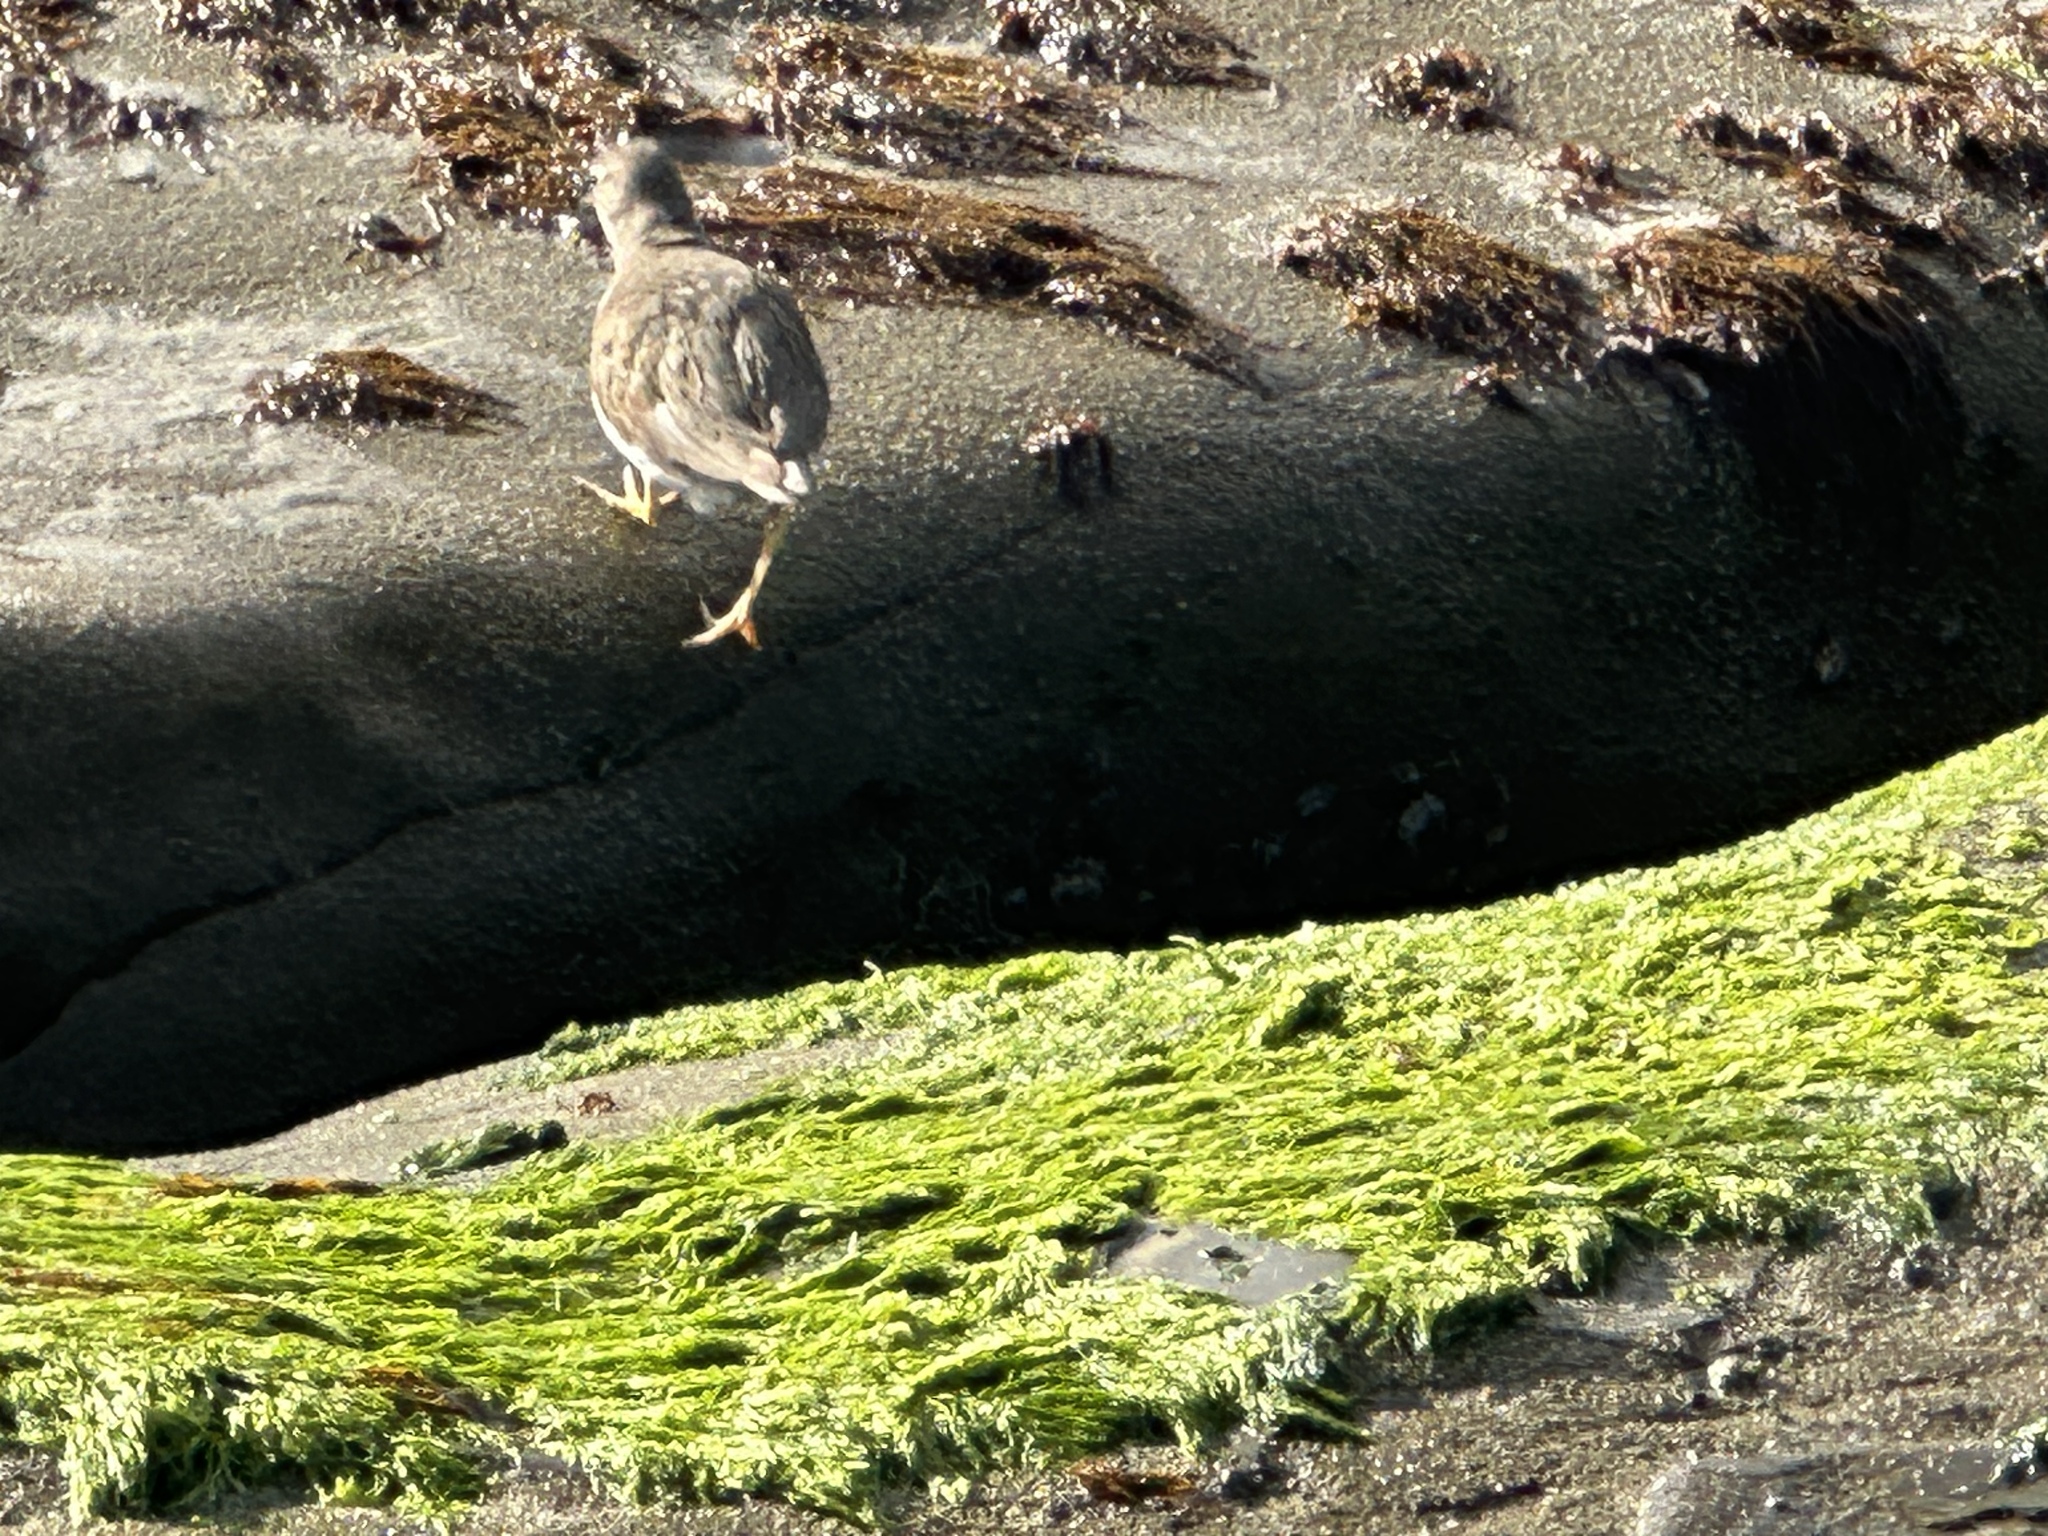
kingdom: Animalia
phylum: Chordata
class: Aves
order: Charadriiformes
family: Scolopacidae
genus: Actitis
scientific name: Actitis macularius
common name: Spotted sandpiper
